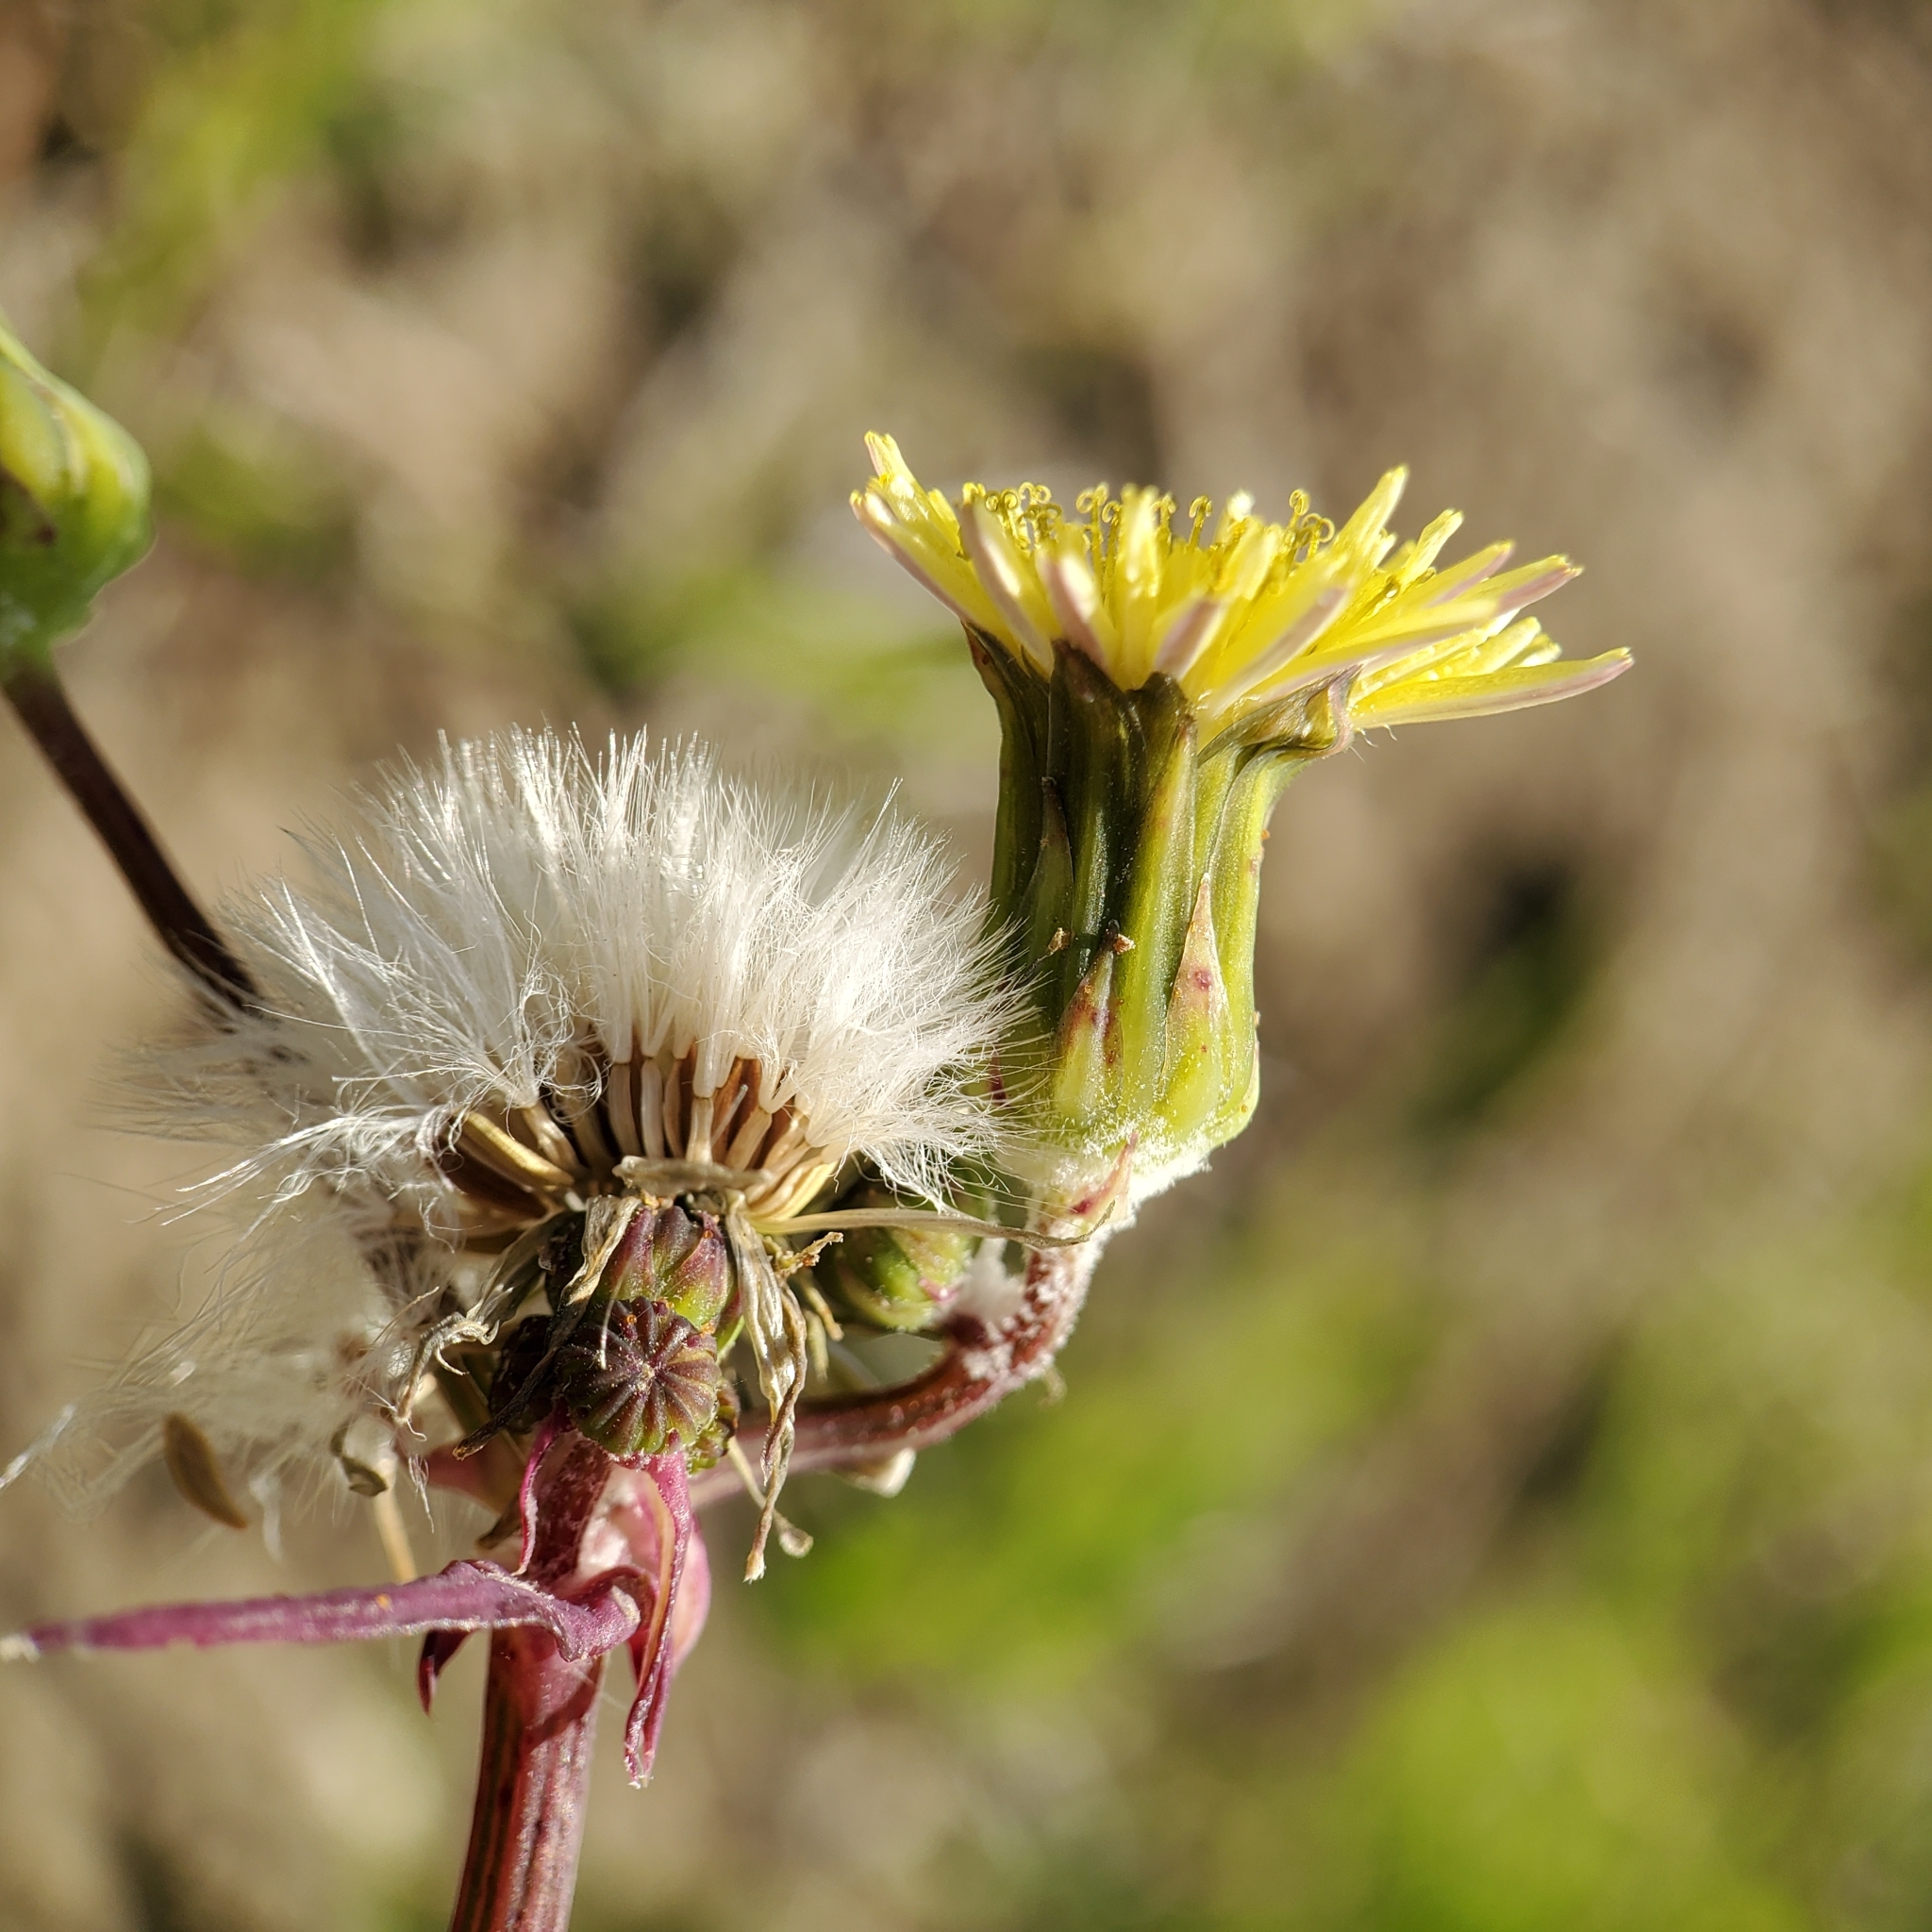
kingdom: Plantae
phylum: Tracheophyta
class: Magnoliopsida
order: Asterales
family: Asteraceae
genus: Sonchus
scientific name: Sonchus oleraceus
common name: Common sowthistle
